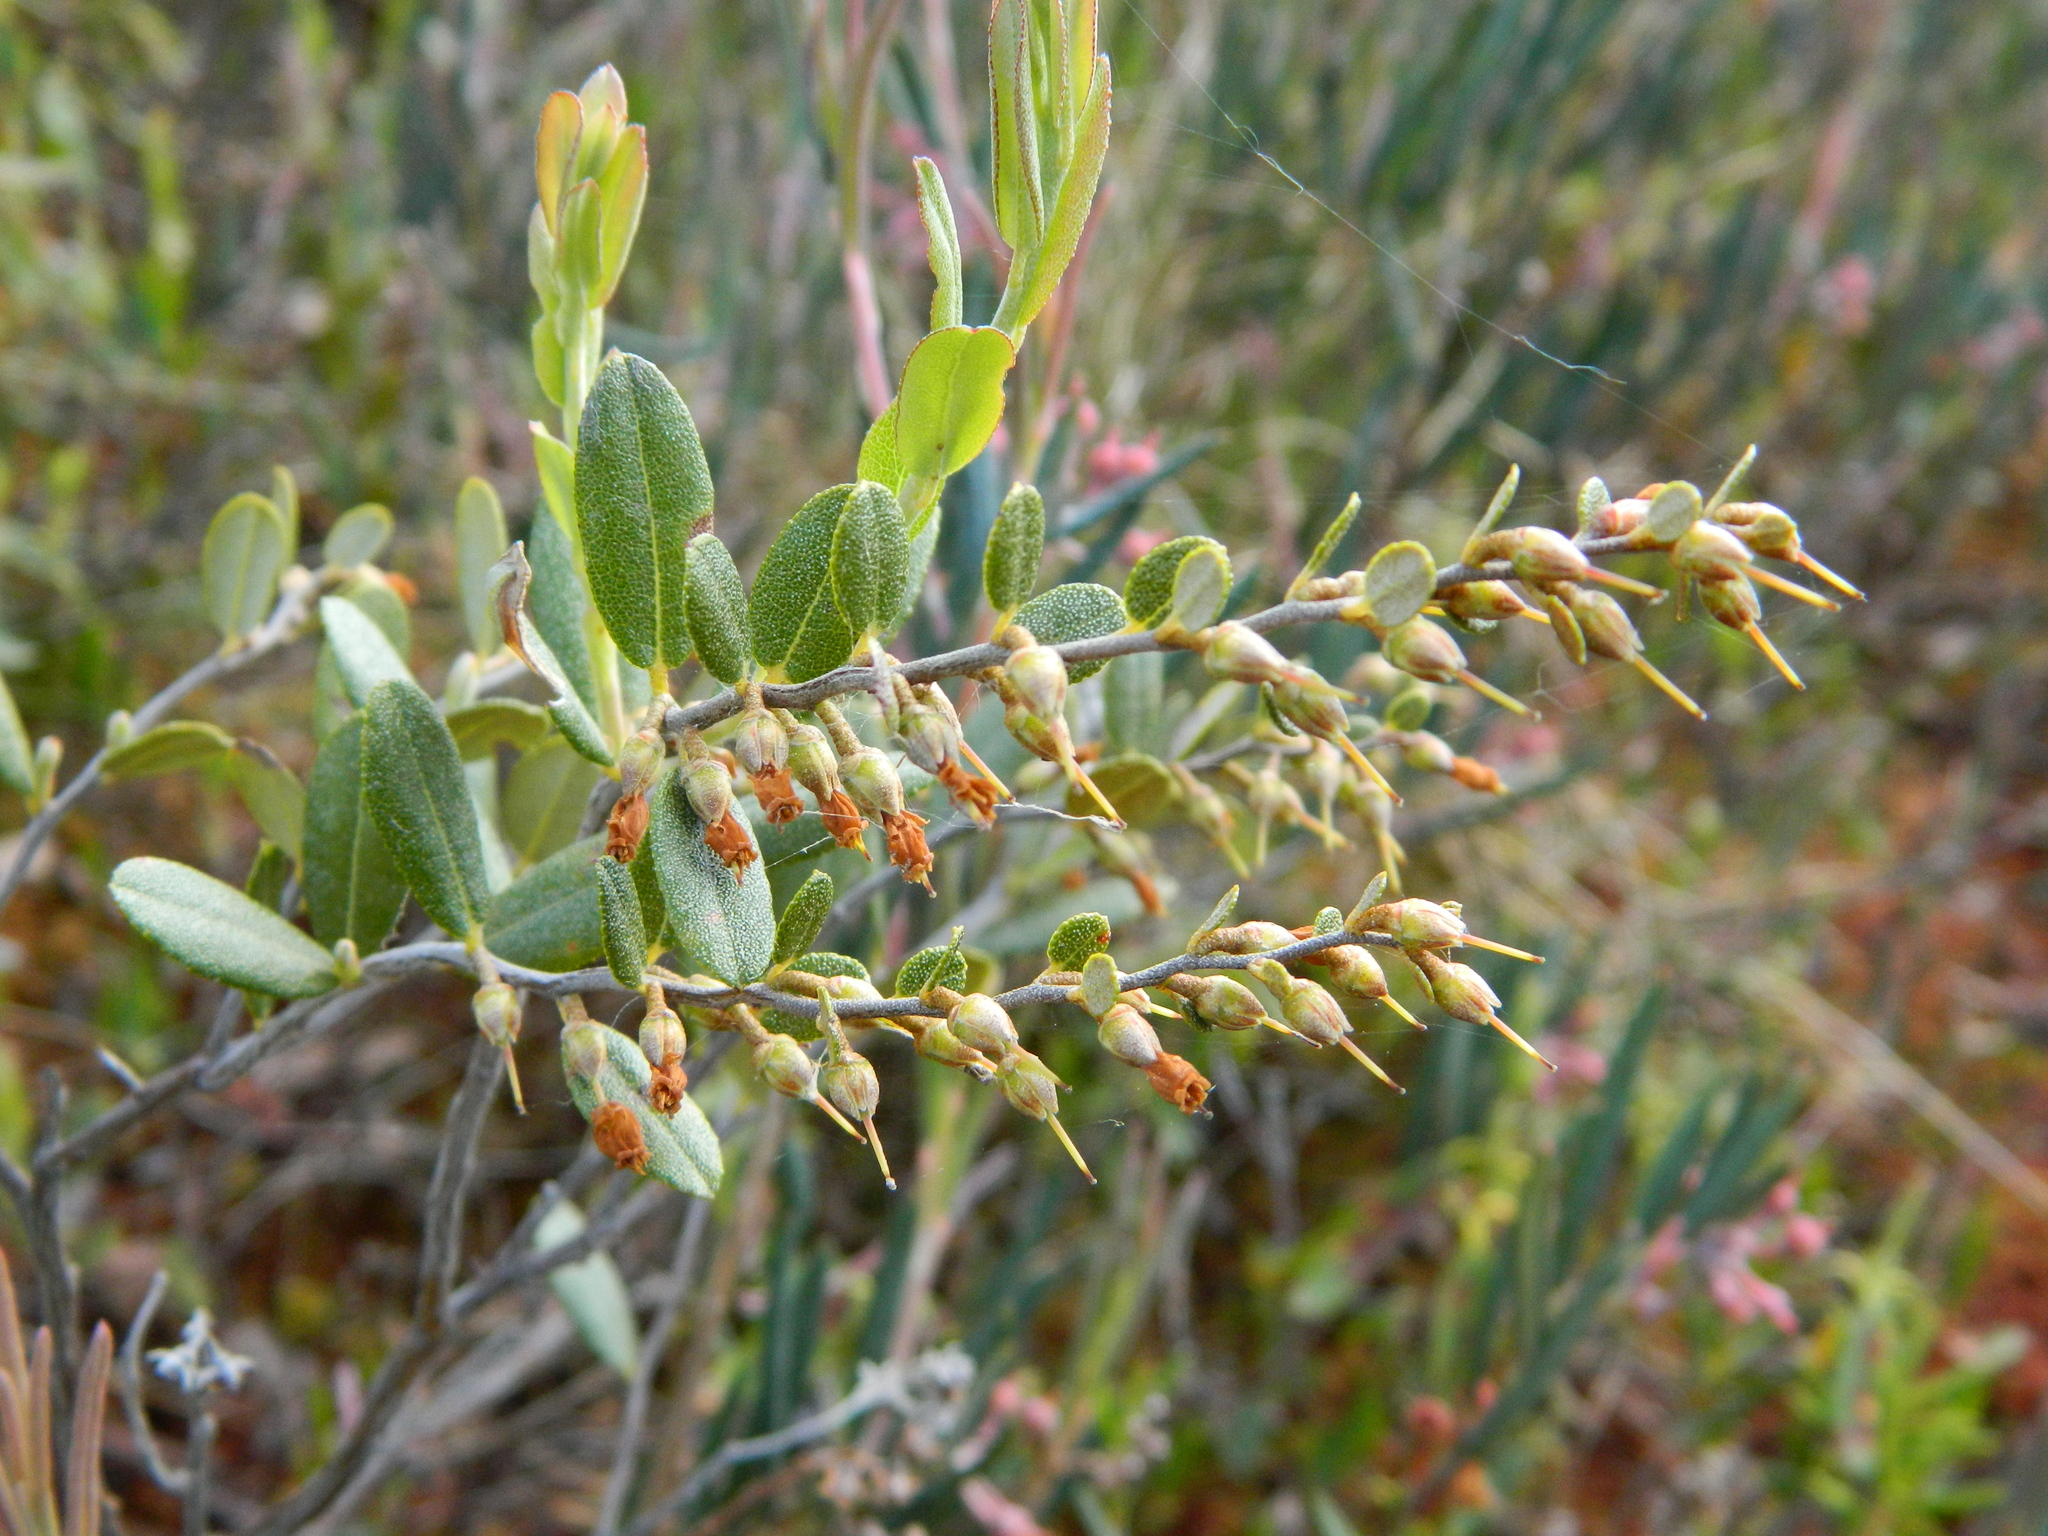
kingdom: Plantae
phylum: Tracheophyta
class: Magnoliopsida
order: Ericales
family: Ericaceae
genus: Chamaedaphne
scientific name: Chamaedaphne calyculata
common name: Leatherleaf
